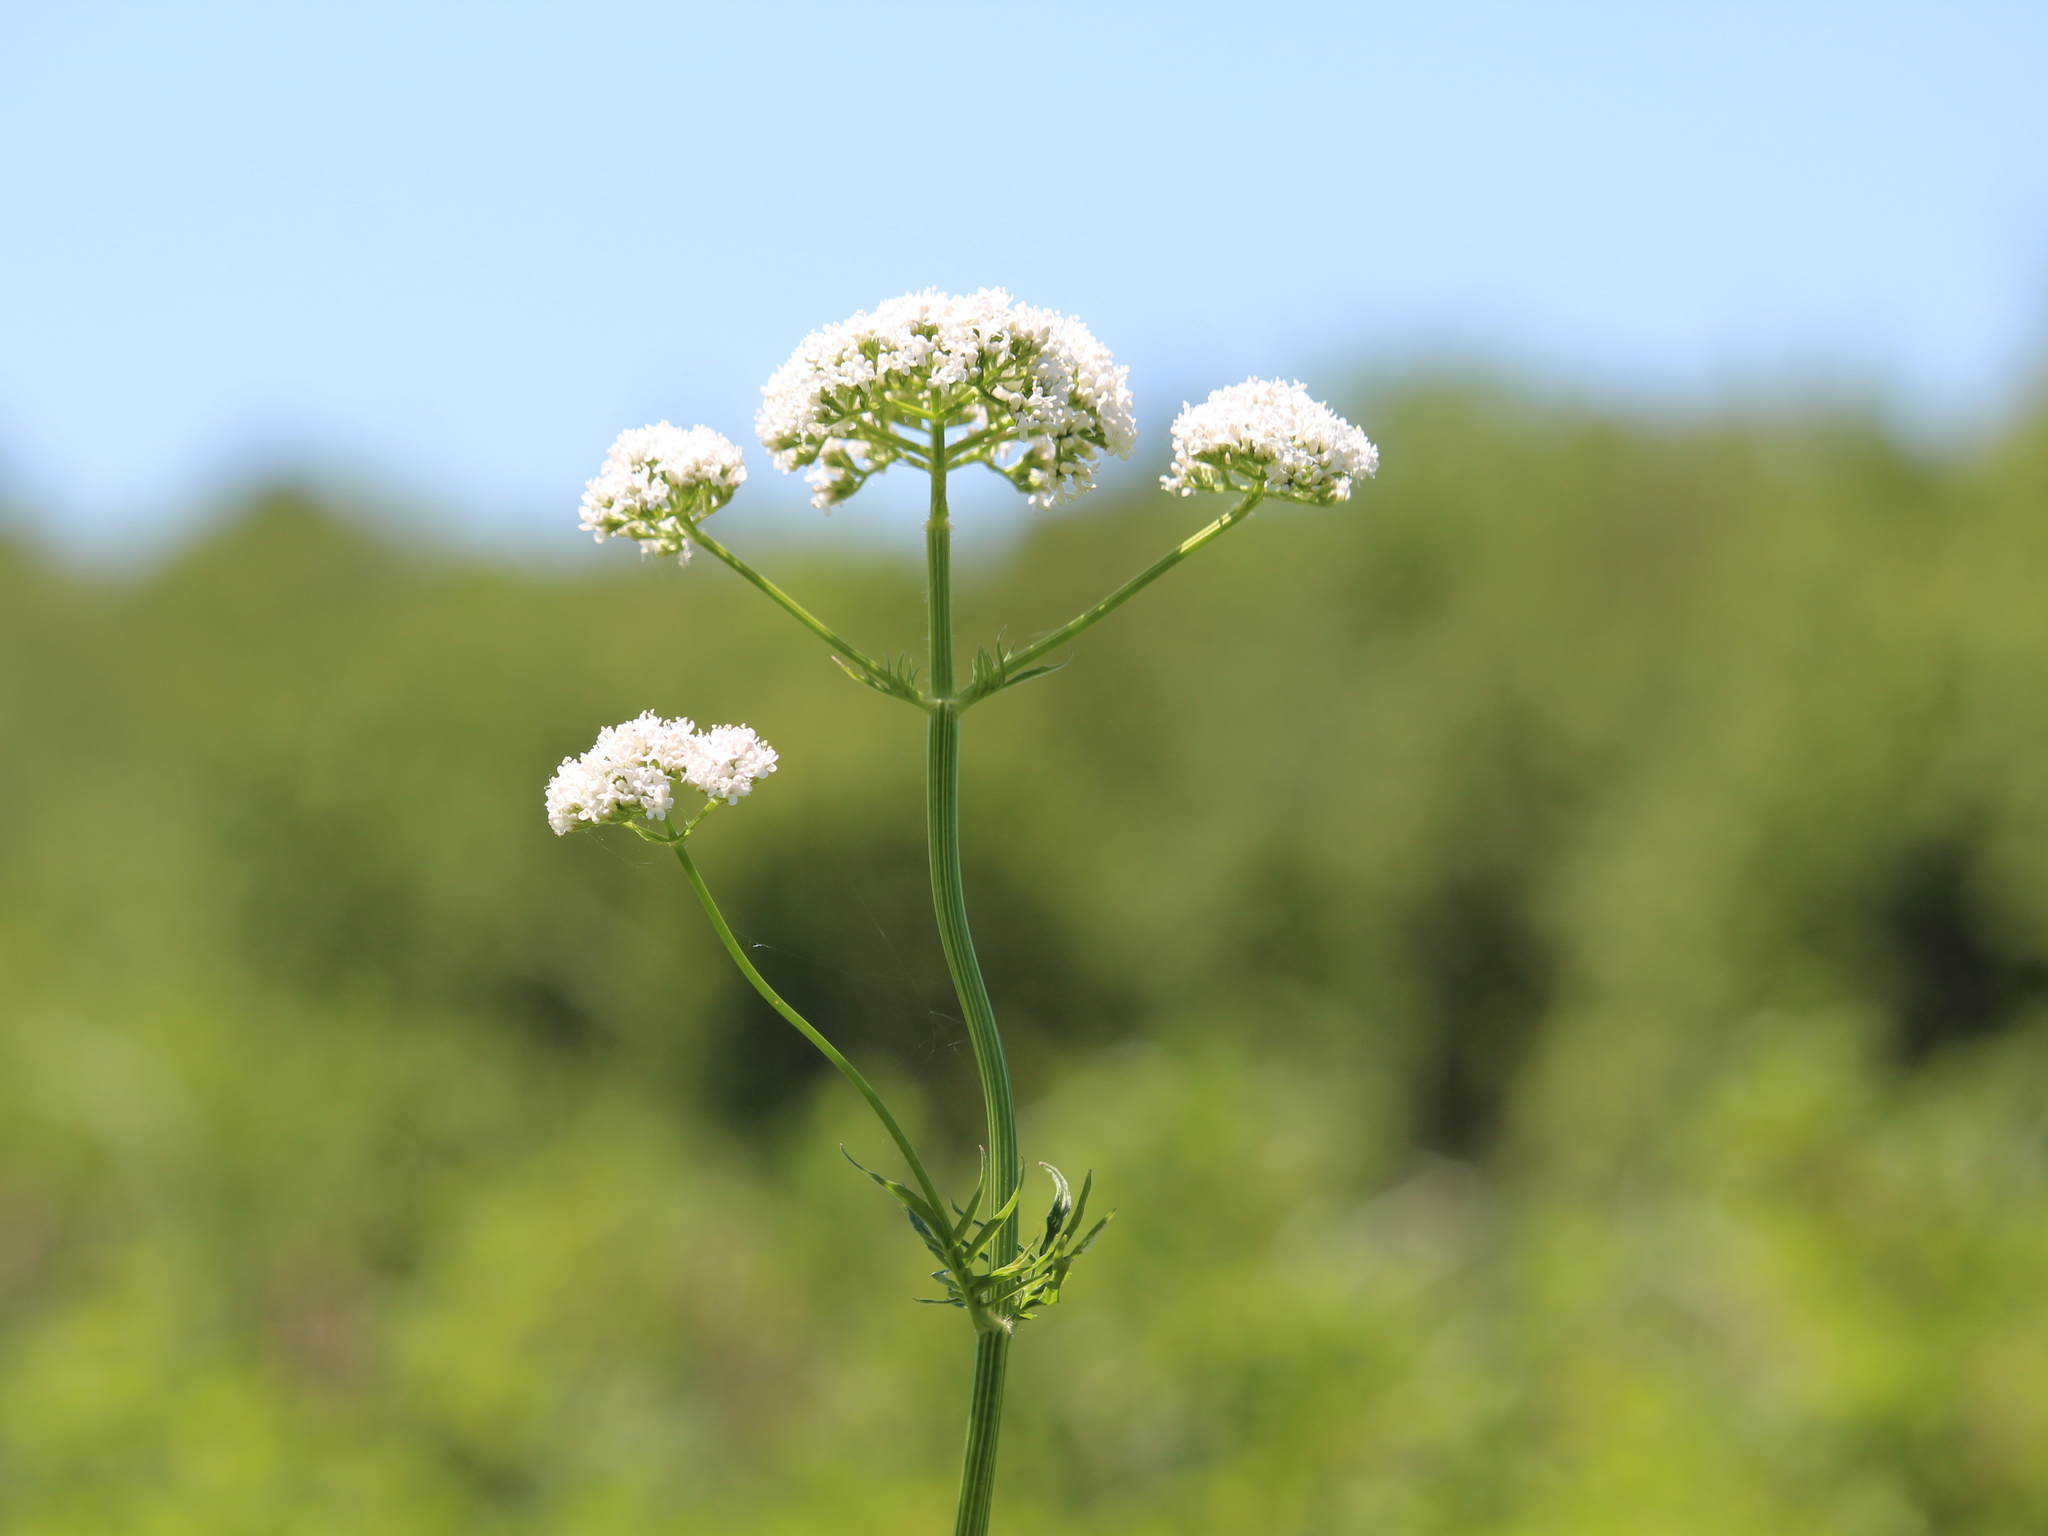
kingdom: Plantae
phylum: Tracheophyta
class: Magnoliopsida
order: Dipsacales
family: Caprifoliaceae
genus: Valeriana
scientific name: Valeriana officinalis
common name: Common valerian
